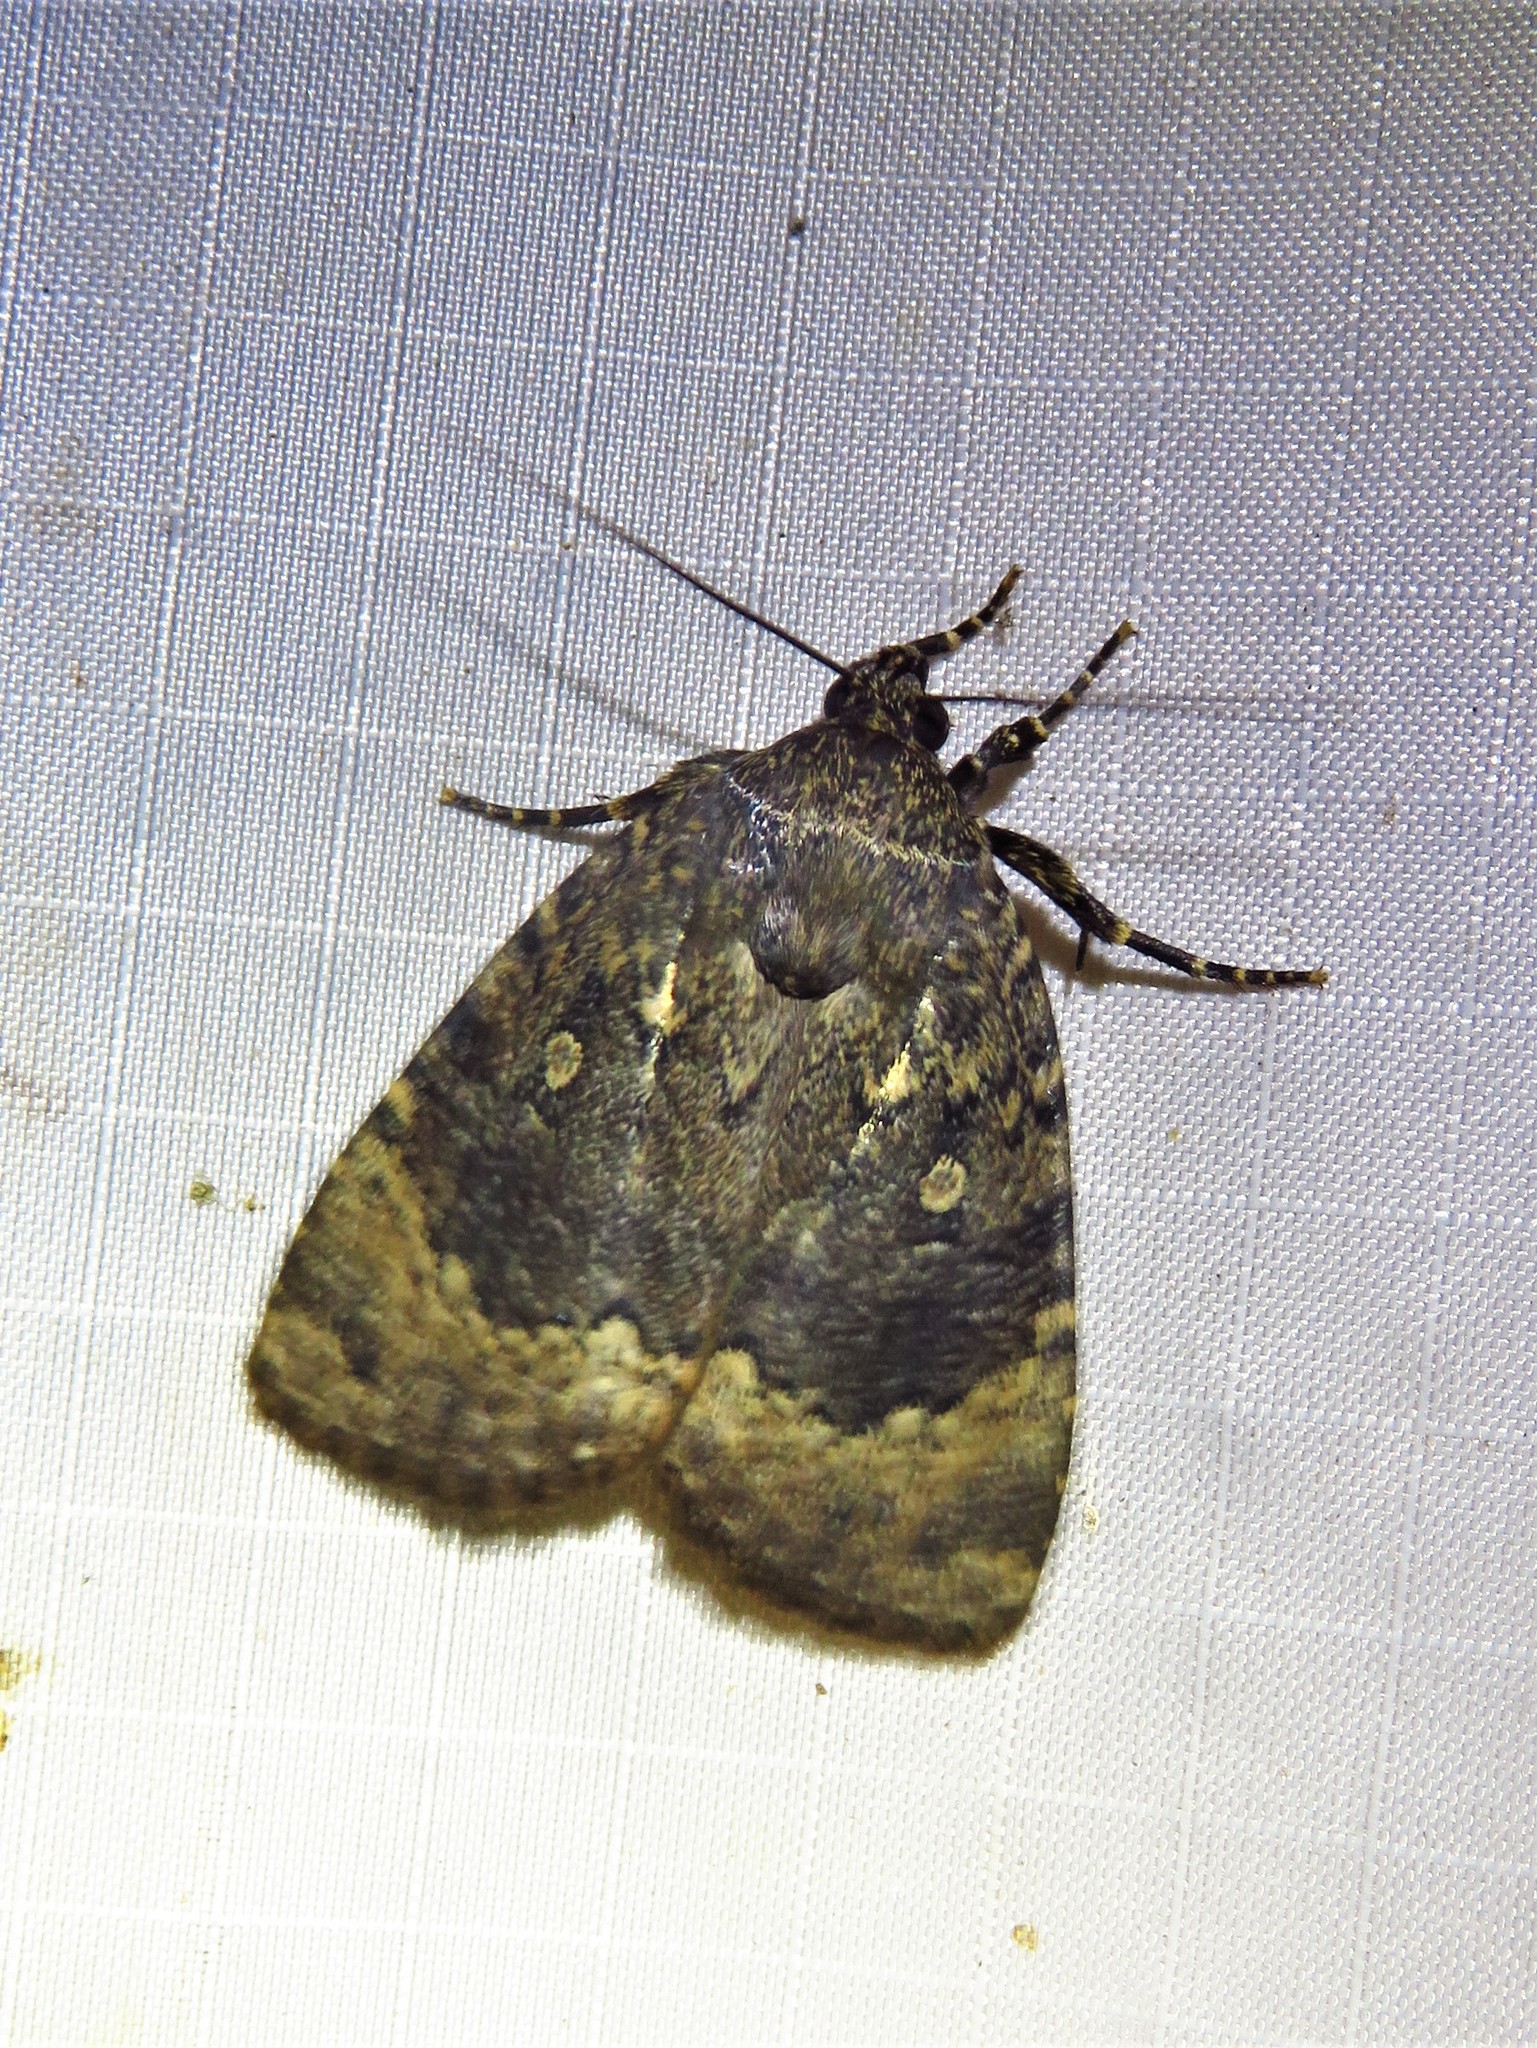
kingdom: Animalia
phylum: Arthropoda
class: Insecta
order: Lepidoptera
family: Noctuidae
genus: Amphipyra
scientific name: Amphipyra pyramidoides
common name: American copper underwing
